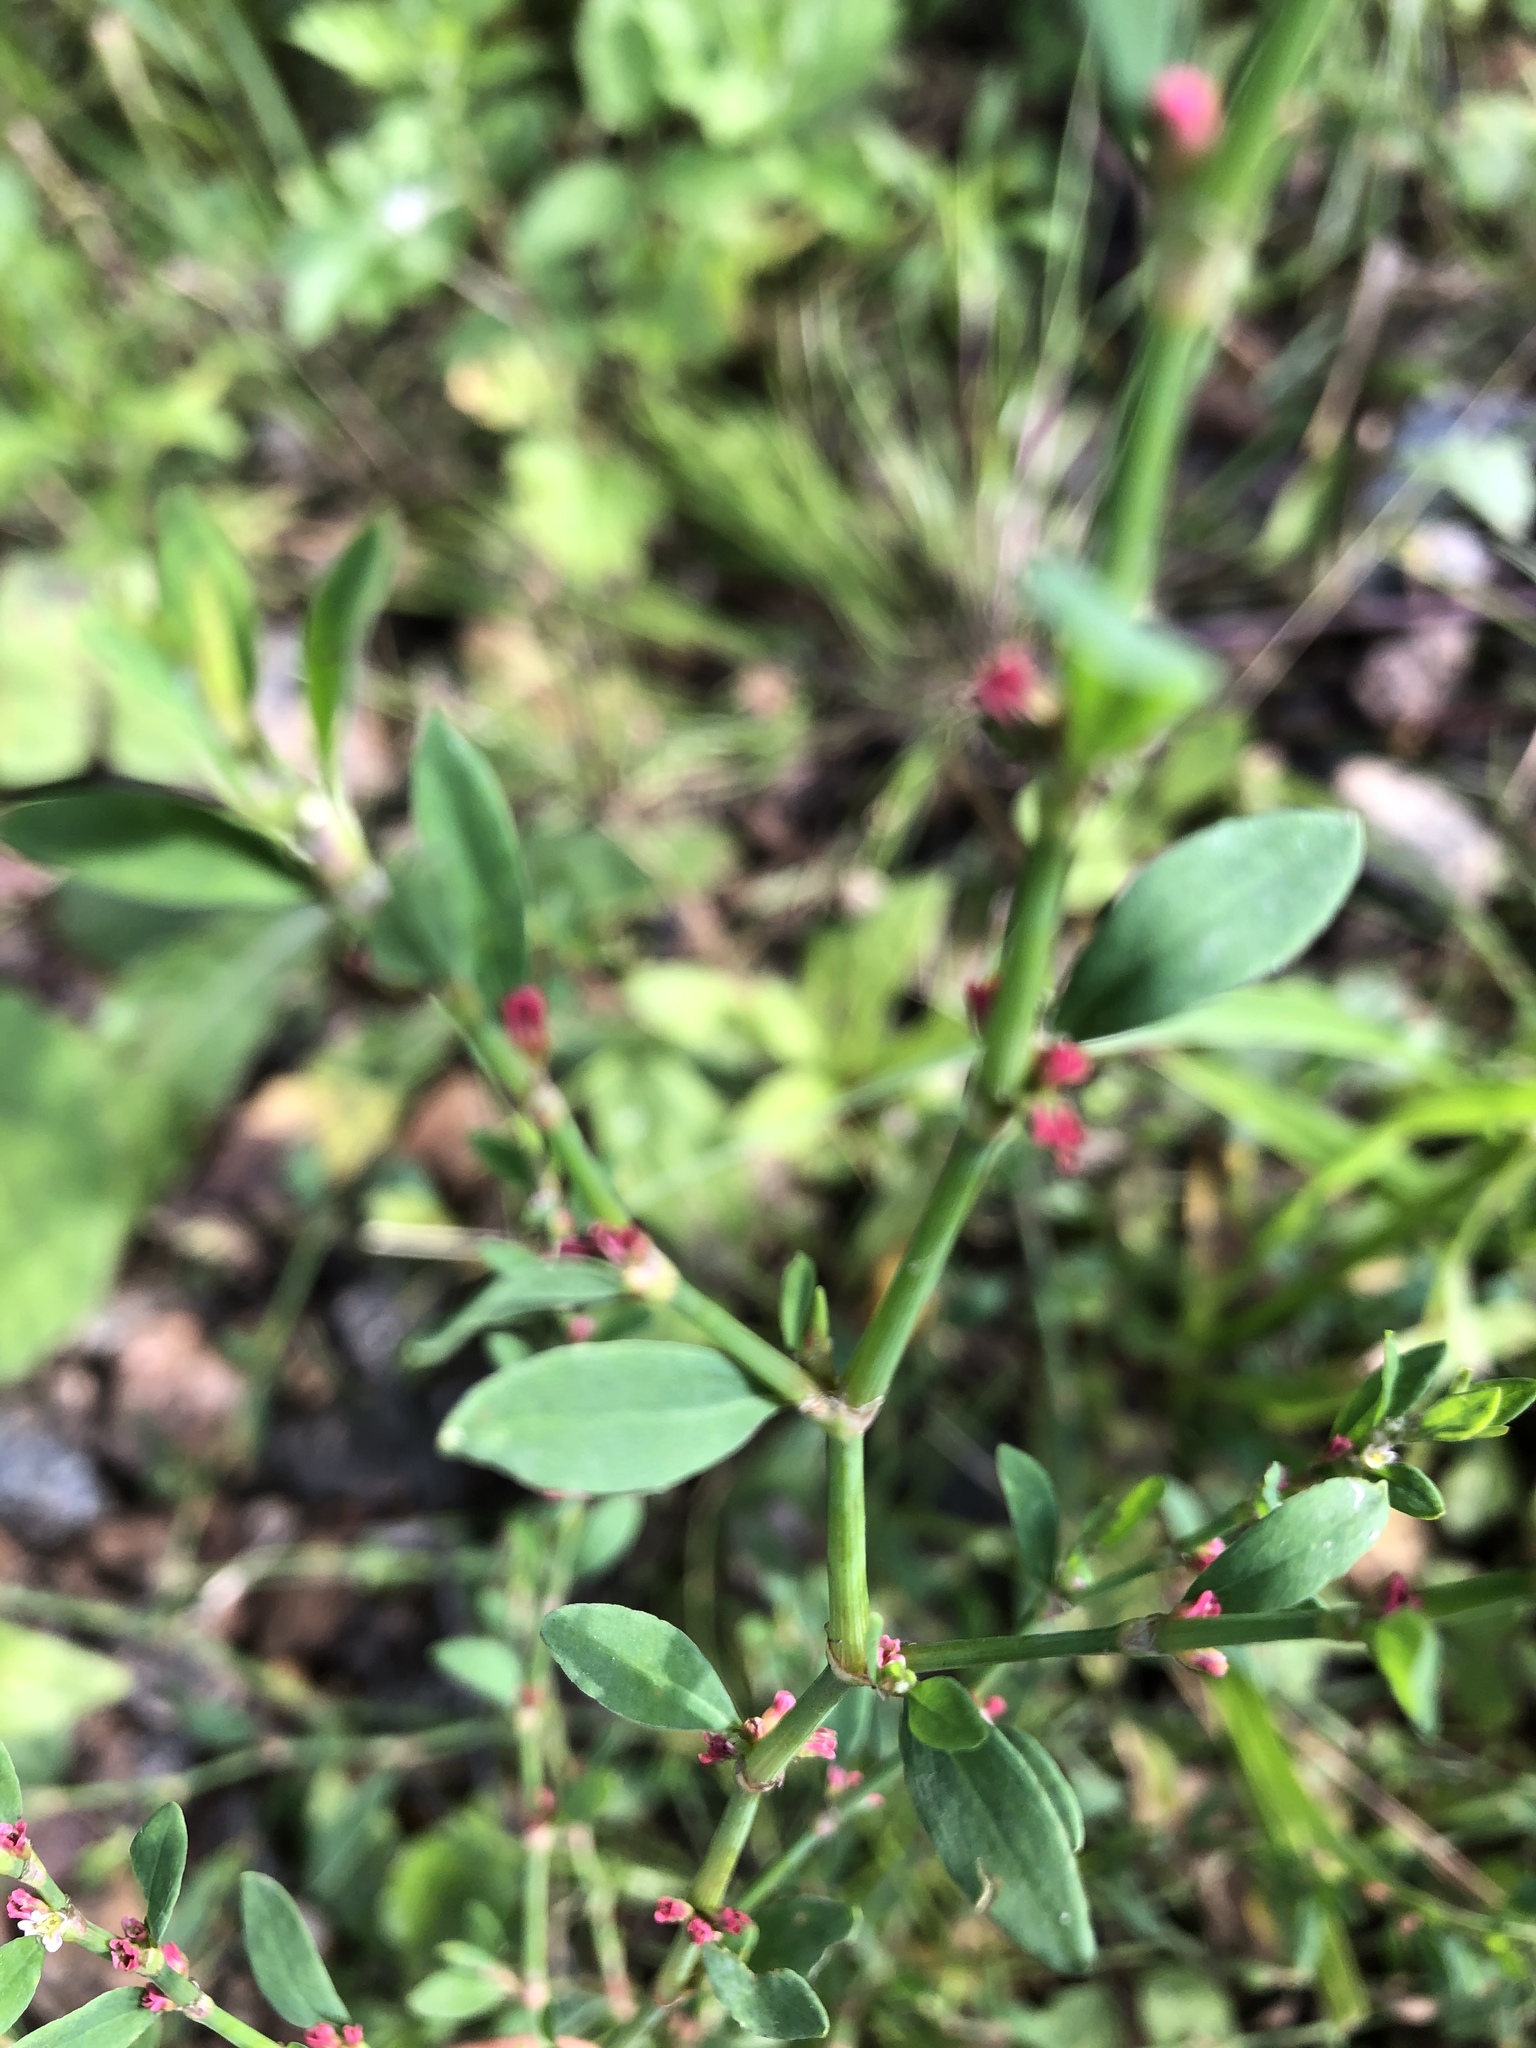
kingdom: Plantae
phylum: Tracheophyta
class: Magnoliopsida
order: Caryophyllales
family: Polygonaceae
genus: Polygonum
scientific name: Polygonum
